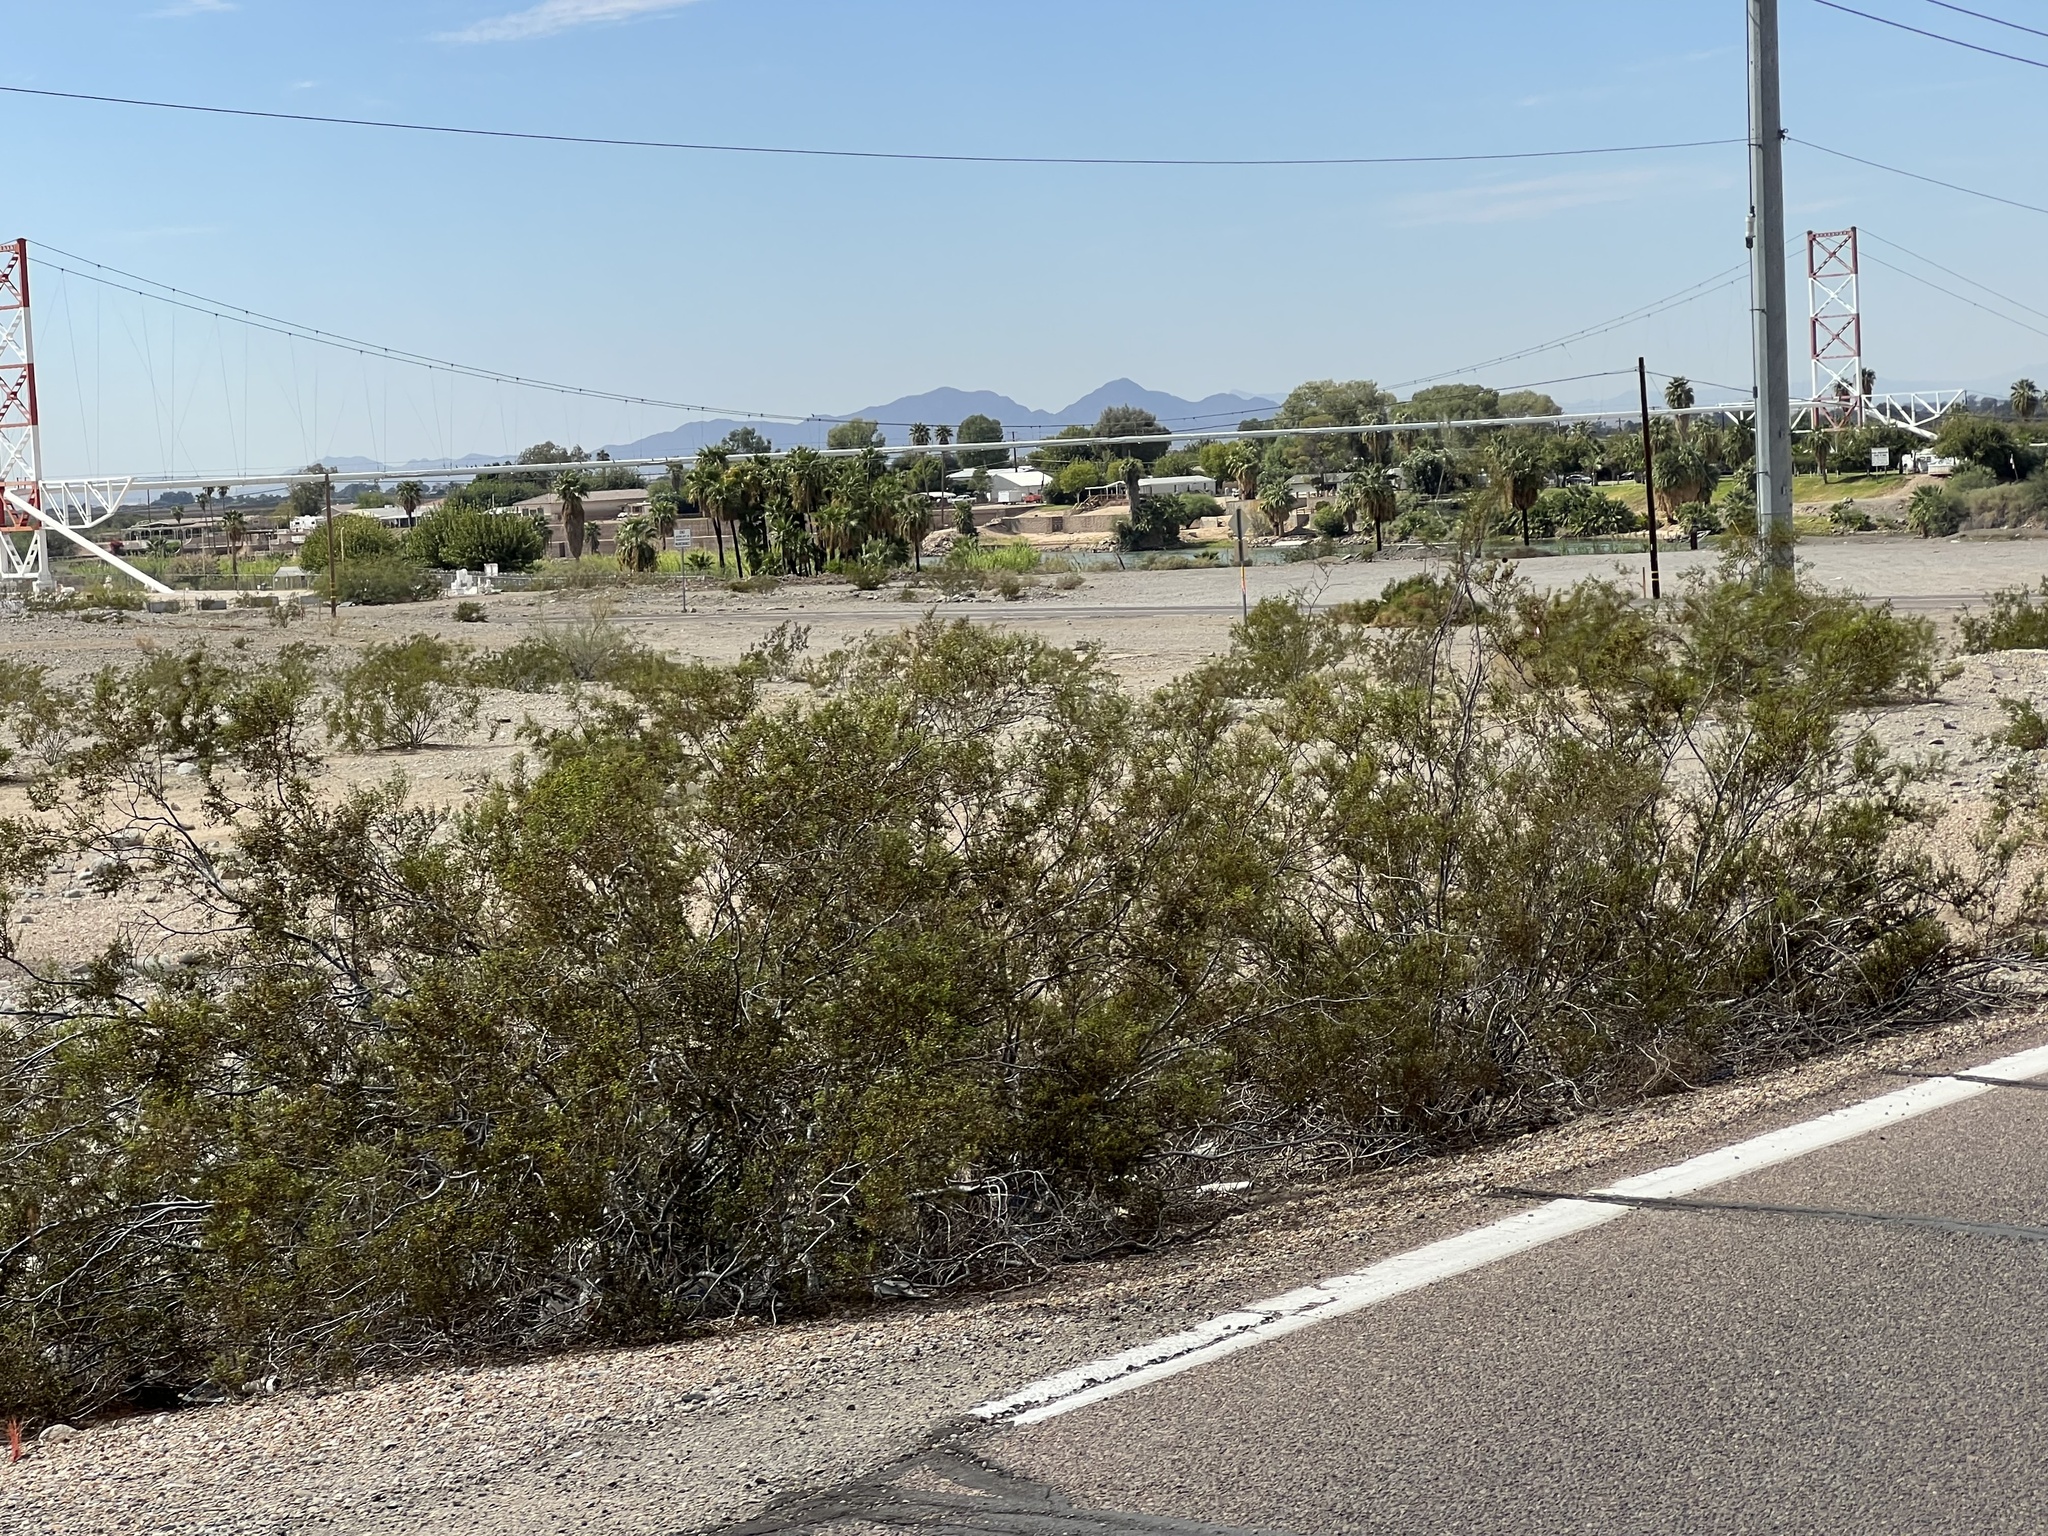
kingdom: Plantae
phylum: Tracheophyta
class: Magnoliopsida
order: Zygophyllales
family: Zygophyllaceae
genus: Larrea
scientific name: Larrea tridentata
